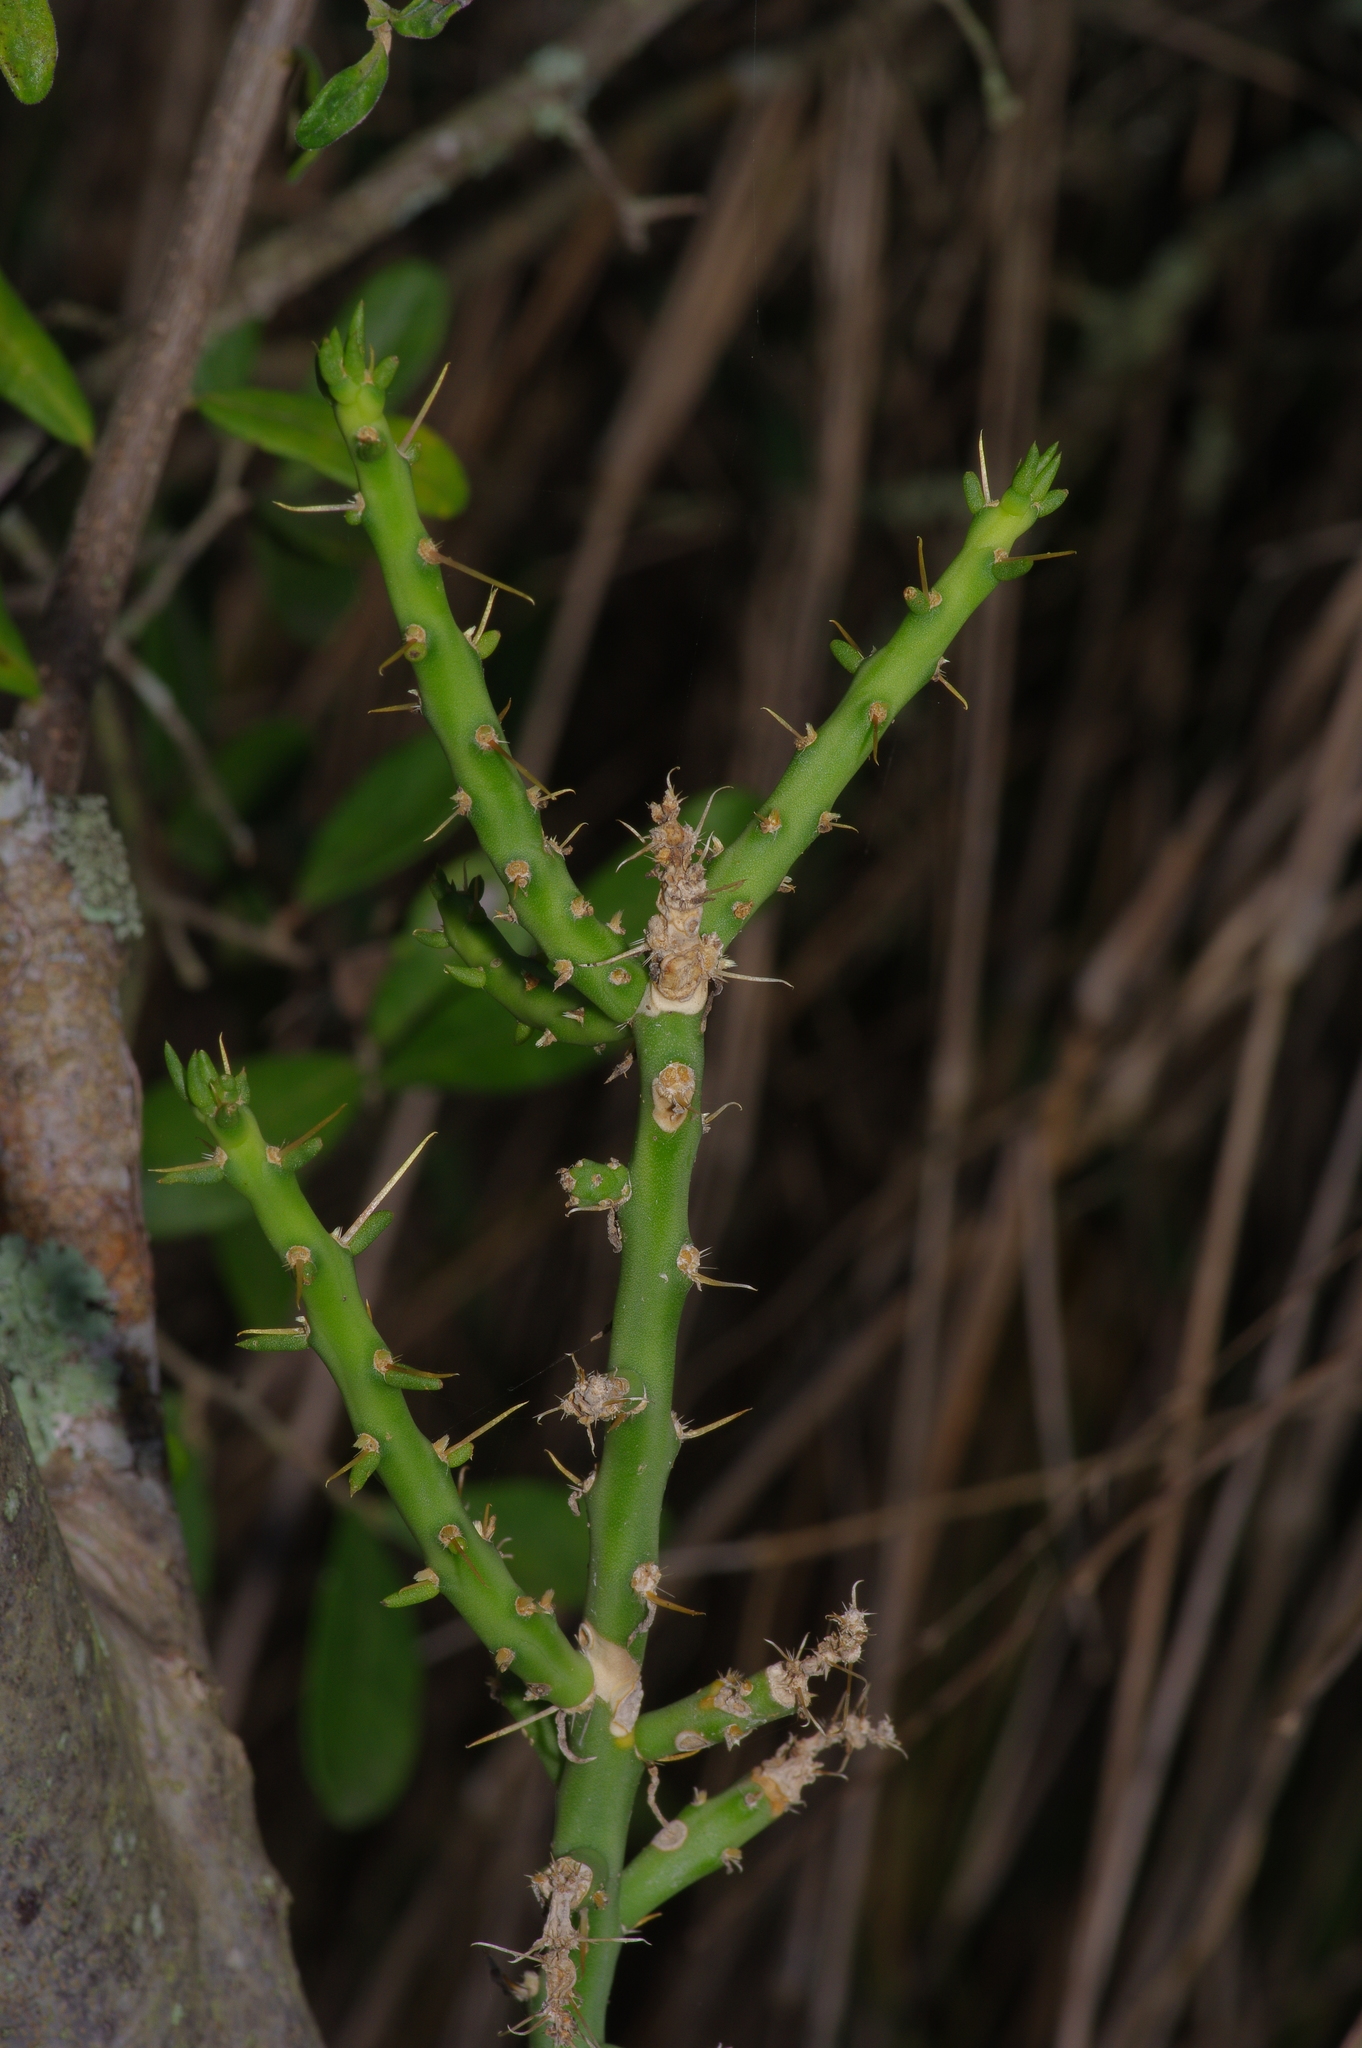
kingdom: Plantae
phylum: Tracheophyta
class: Magnoliopsida
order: Caryophyllales
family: Cactaceae
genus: Cylindropuntia
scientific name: Cylindropuntia leptocaulis
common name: Christmas cactus
